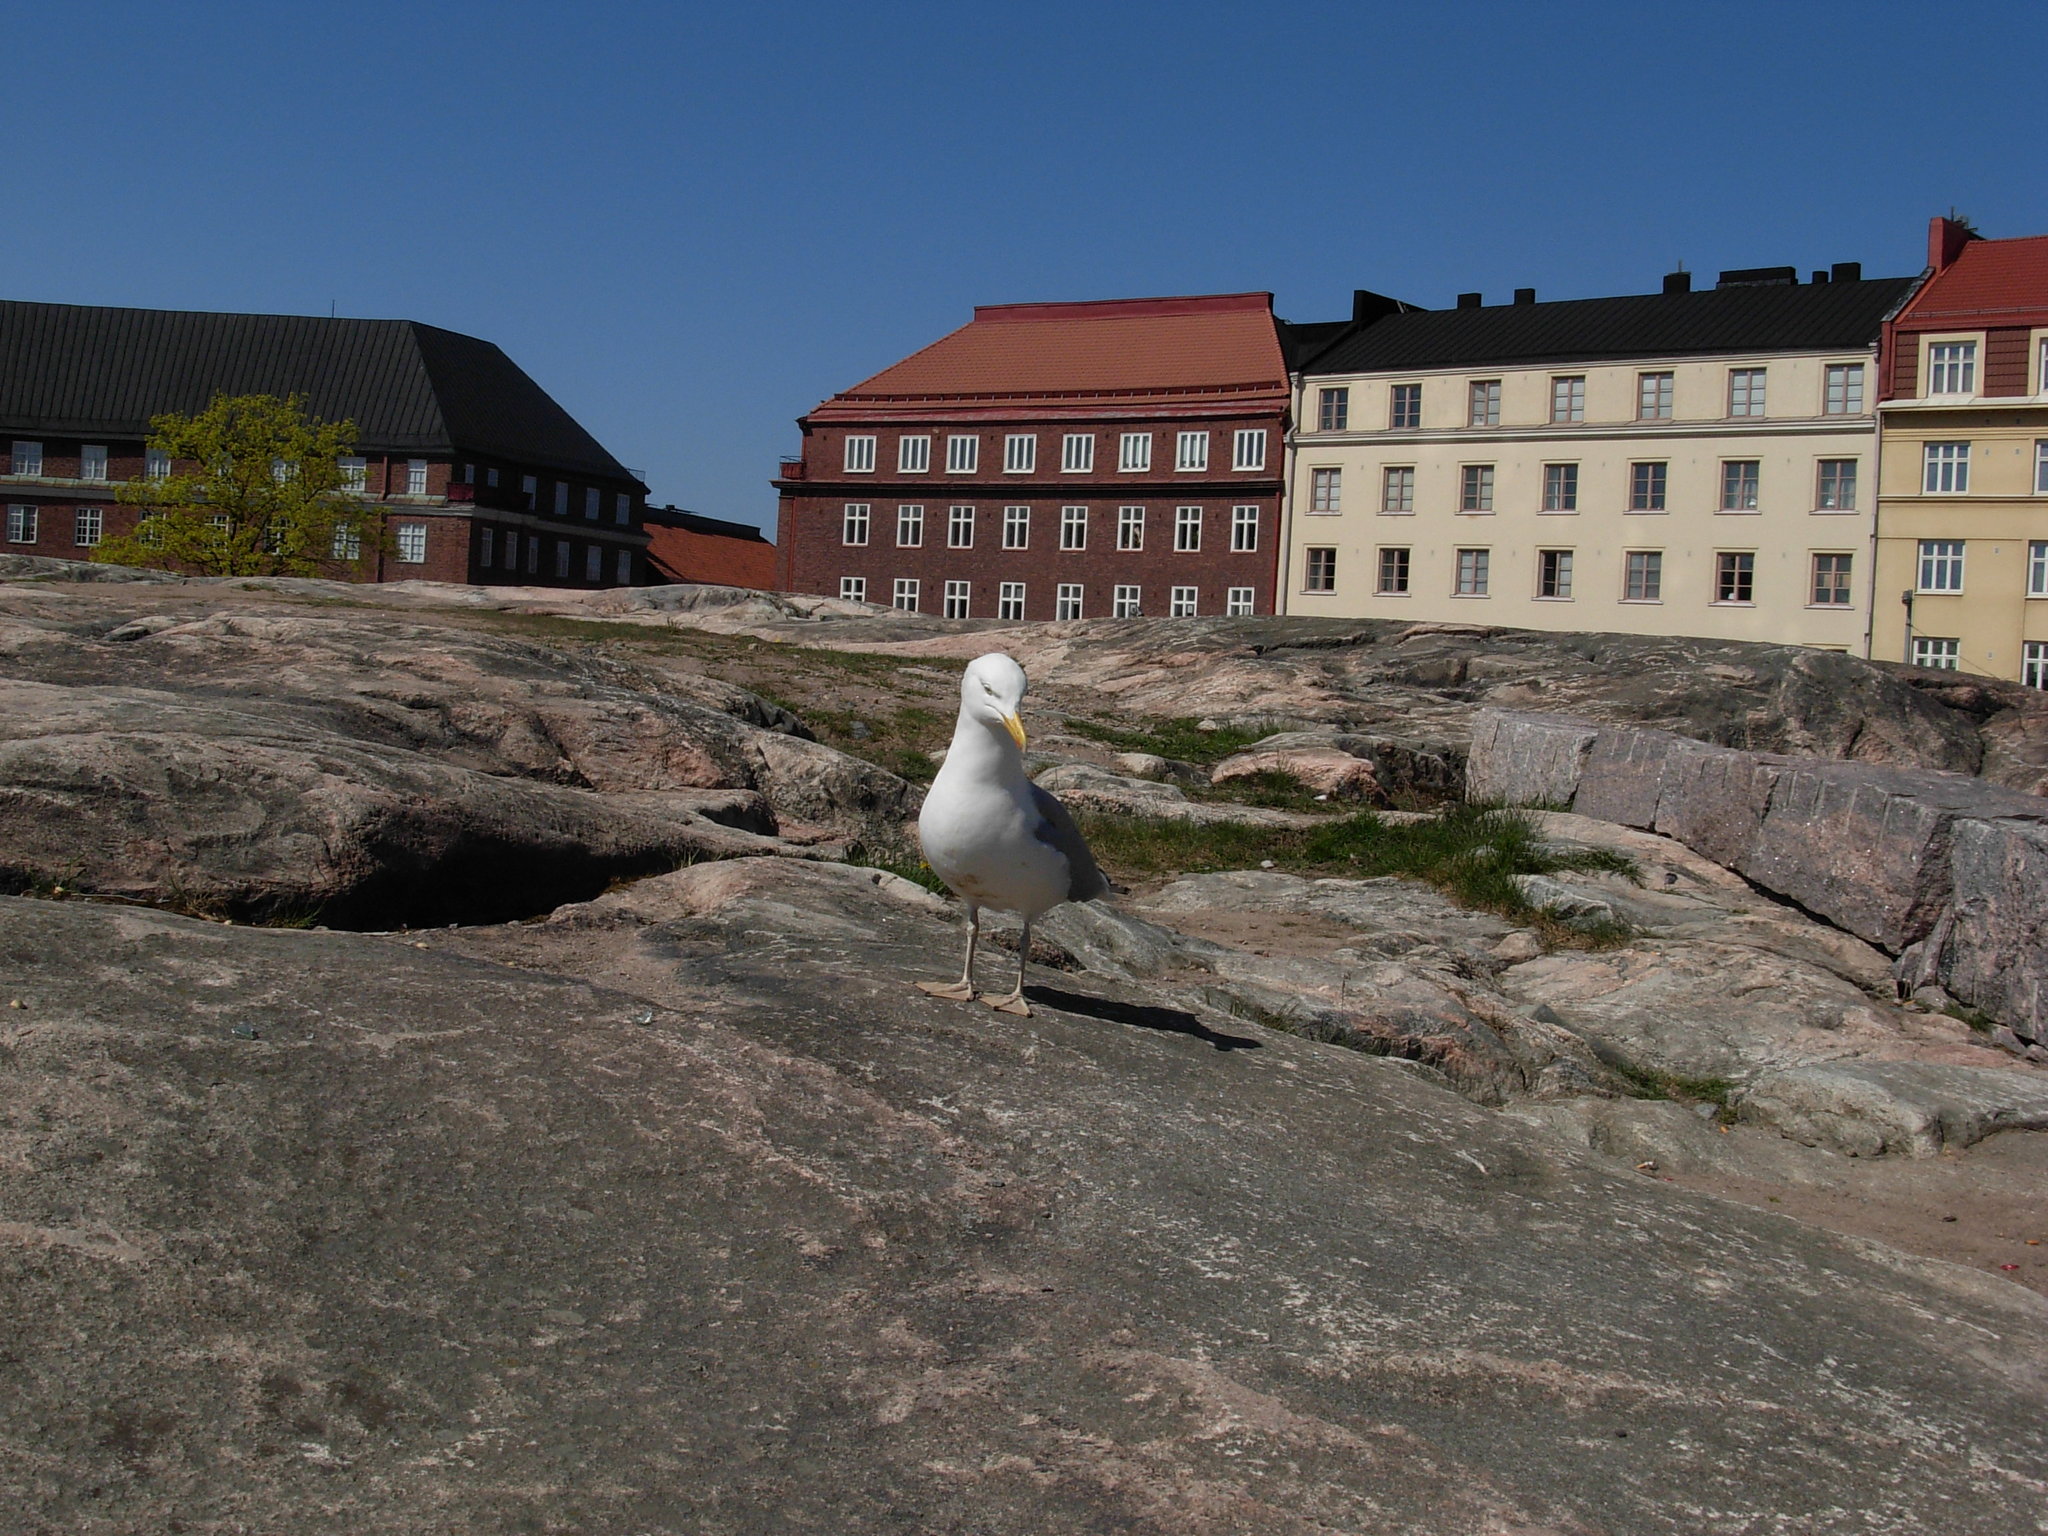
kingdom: Animalia
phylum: Chordata
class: Aves
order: Charadriiformes
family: Laridae
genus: Larus
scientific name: Larus argentatus
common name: Herring gull
